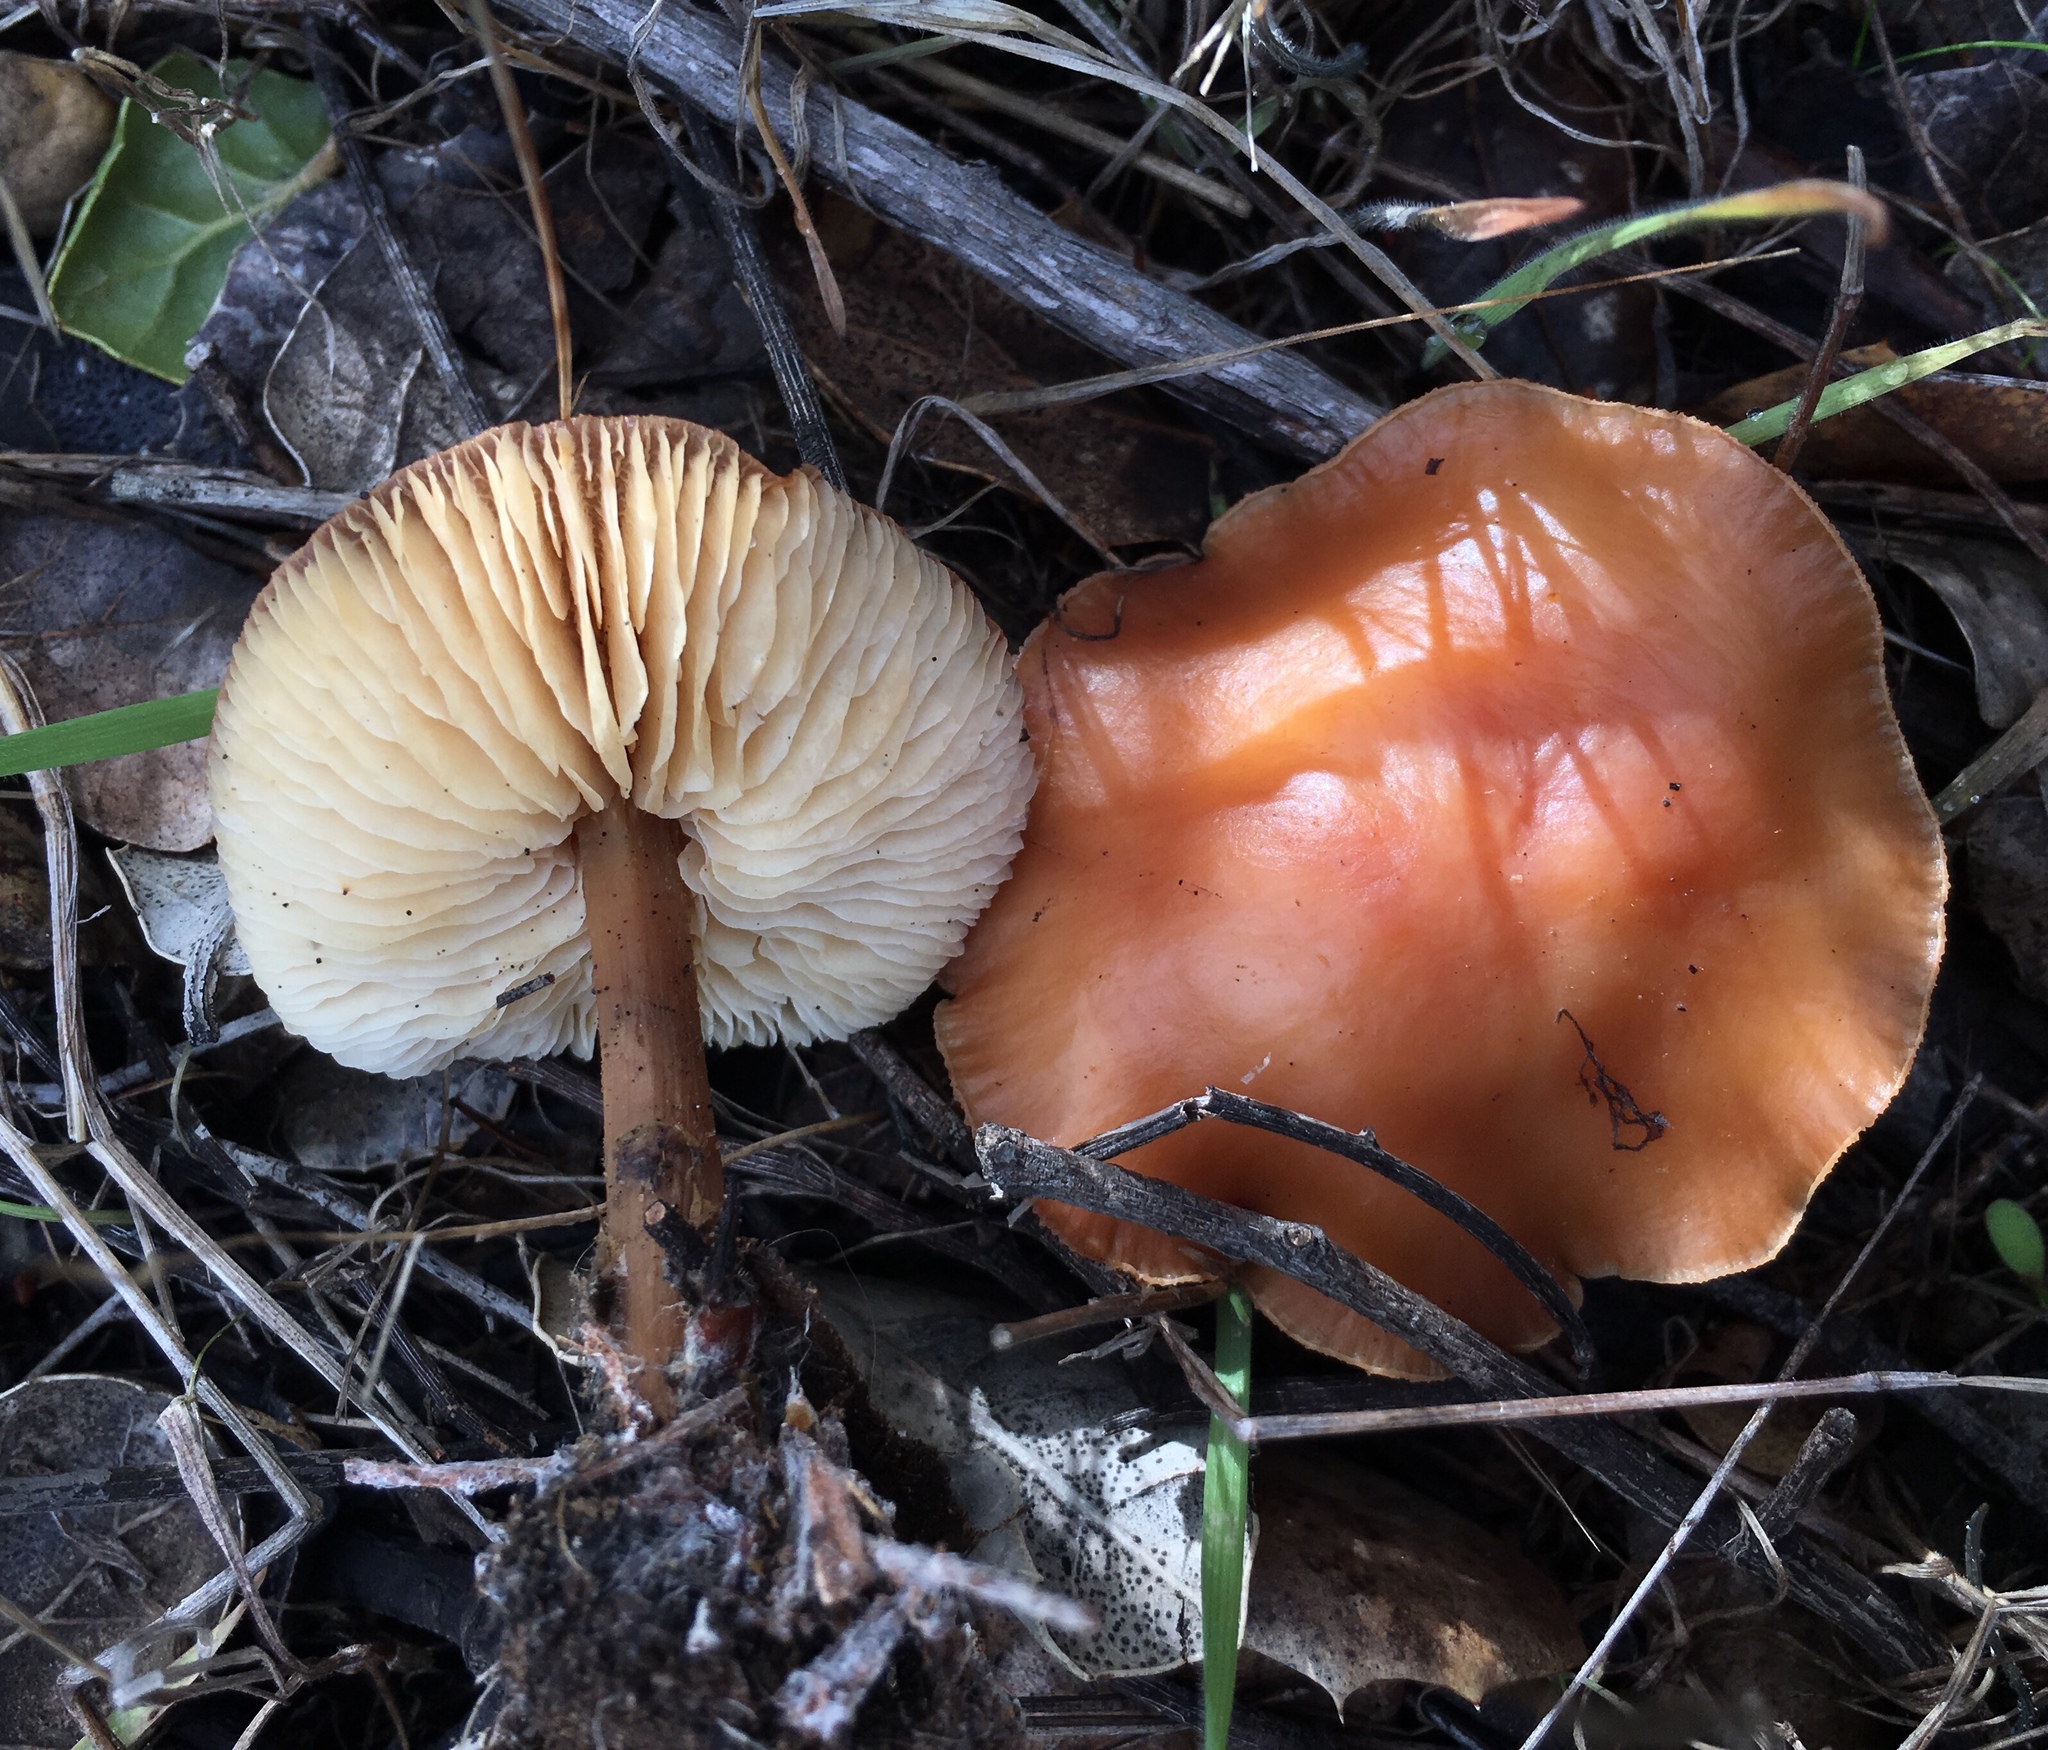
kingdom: Fungi
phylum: Basidiomycota
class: Agaricomycetes
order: Agaricales
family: Omphalotaceae
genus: Gymnopus
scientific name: Gymnopus dryophilus
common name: Penny top
